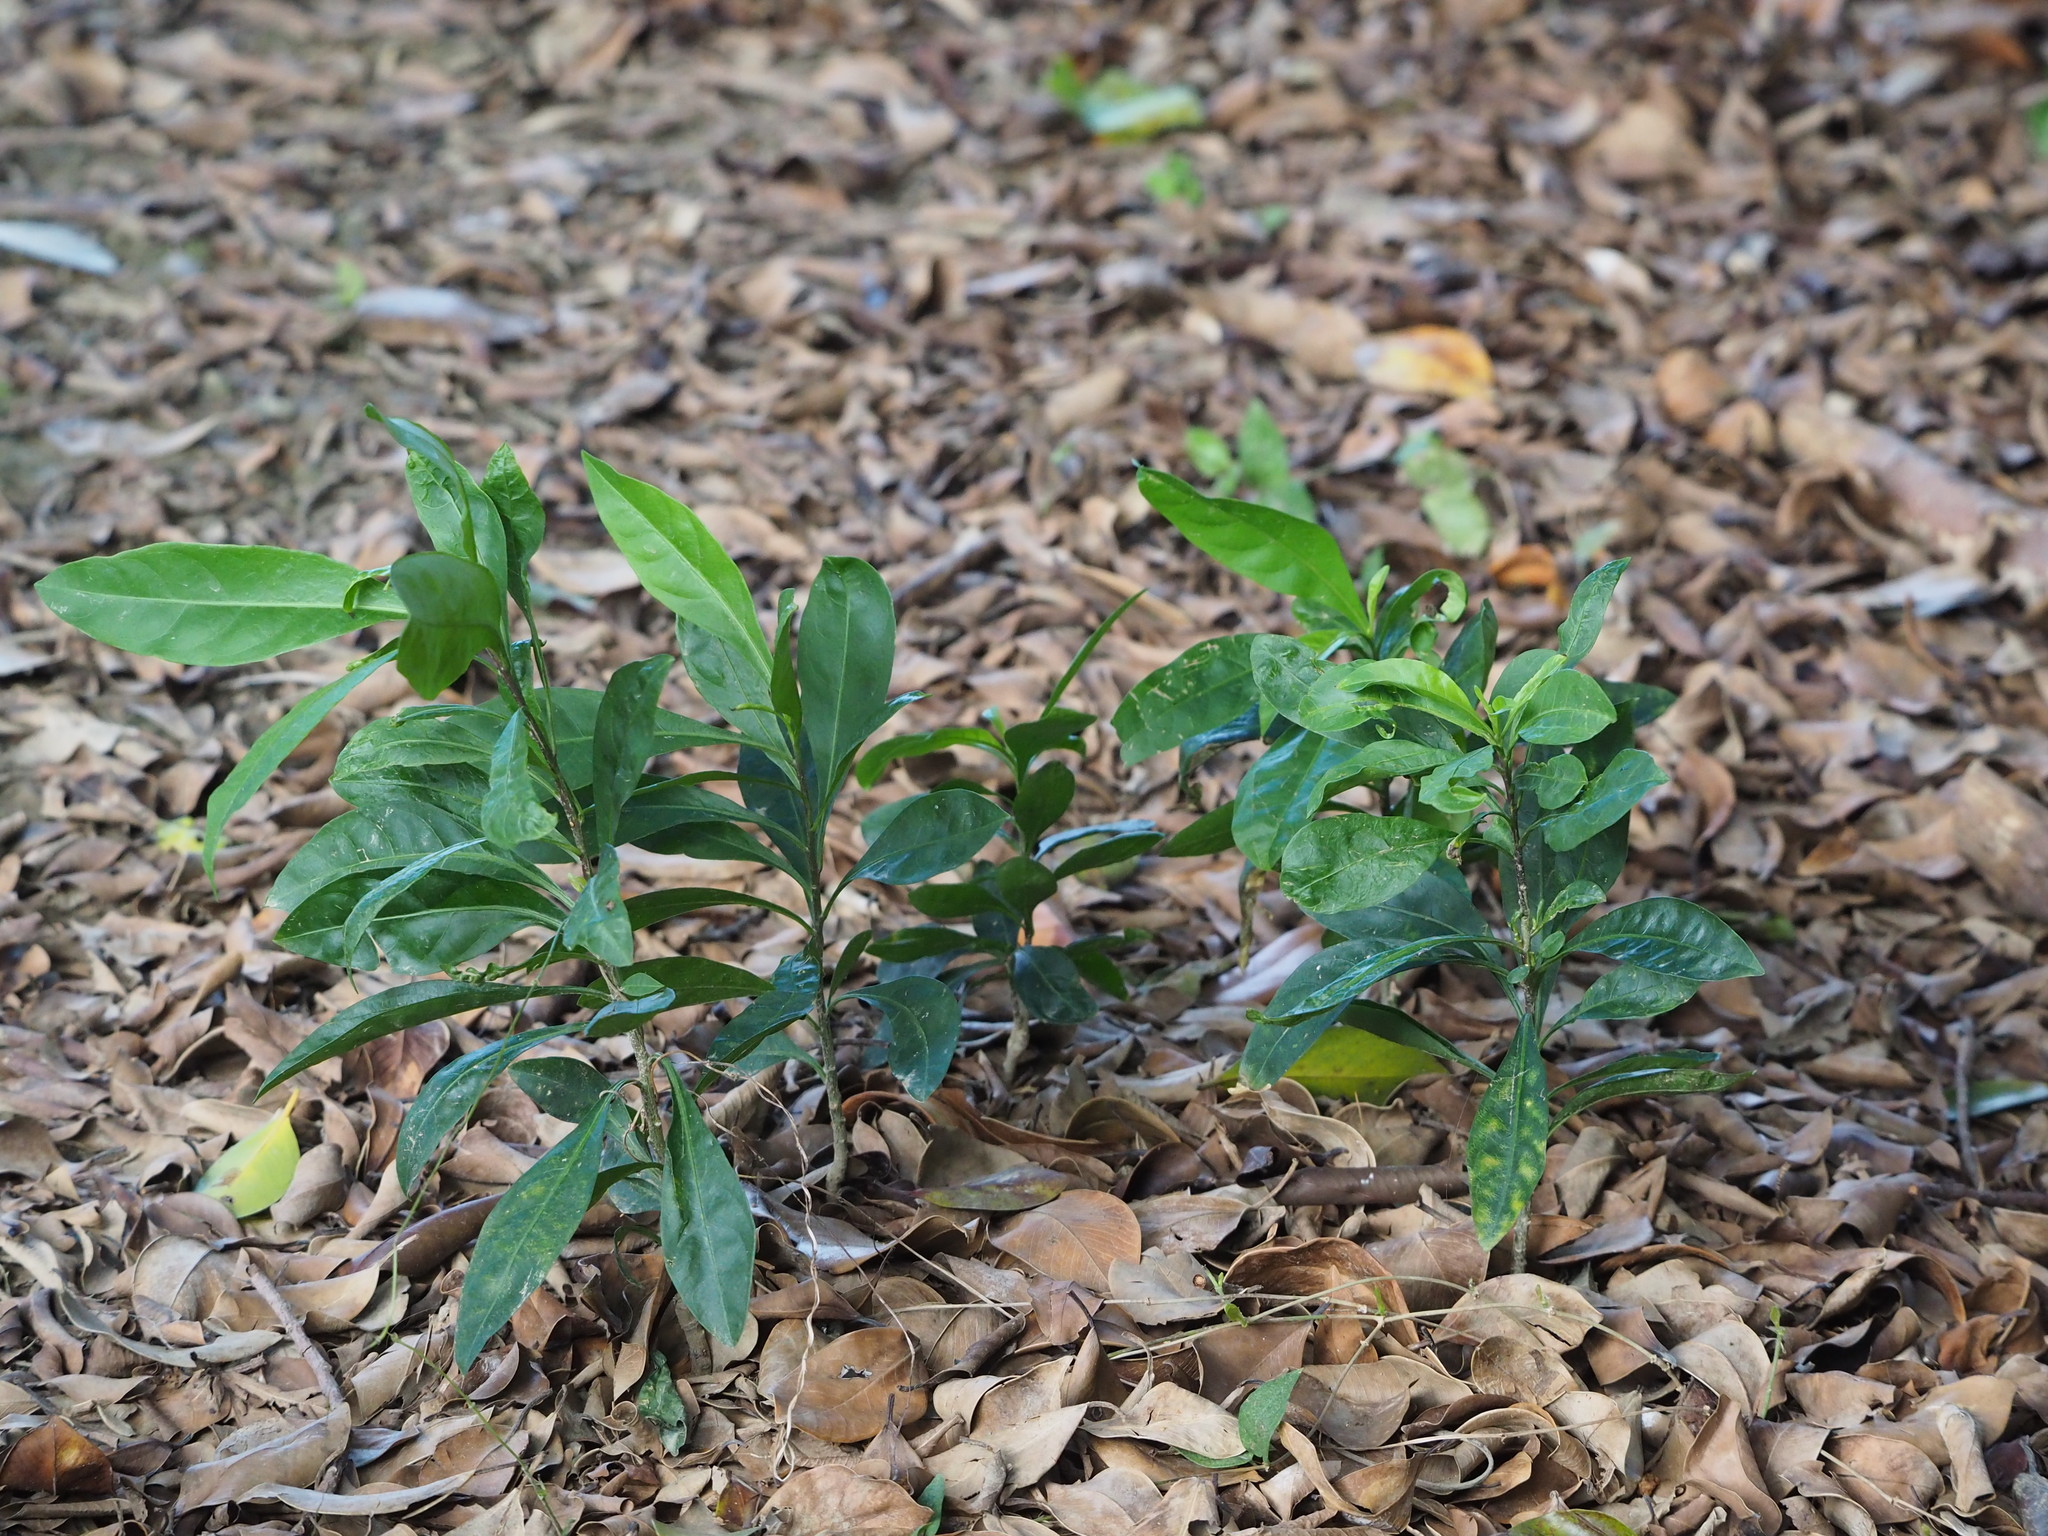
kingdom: Plantae
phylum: Tracheophyta
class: Magnoliopsida
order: Solanales
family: Solanaceae
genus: Solanum
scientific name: Solanum diphyllum
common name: Twoleaf nightshade
